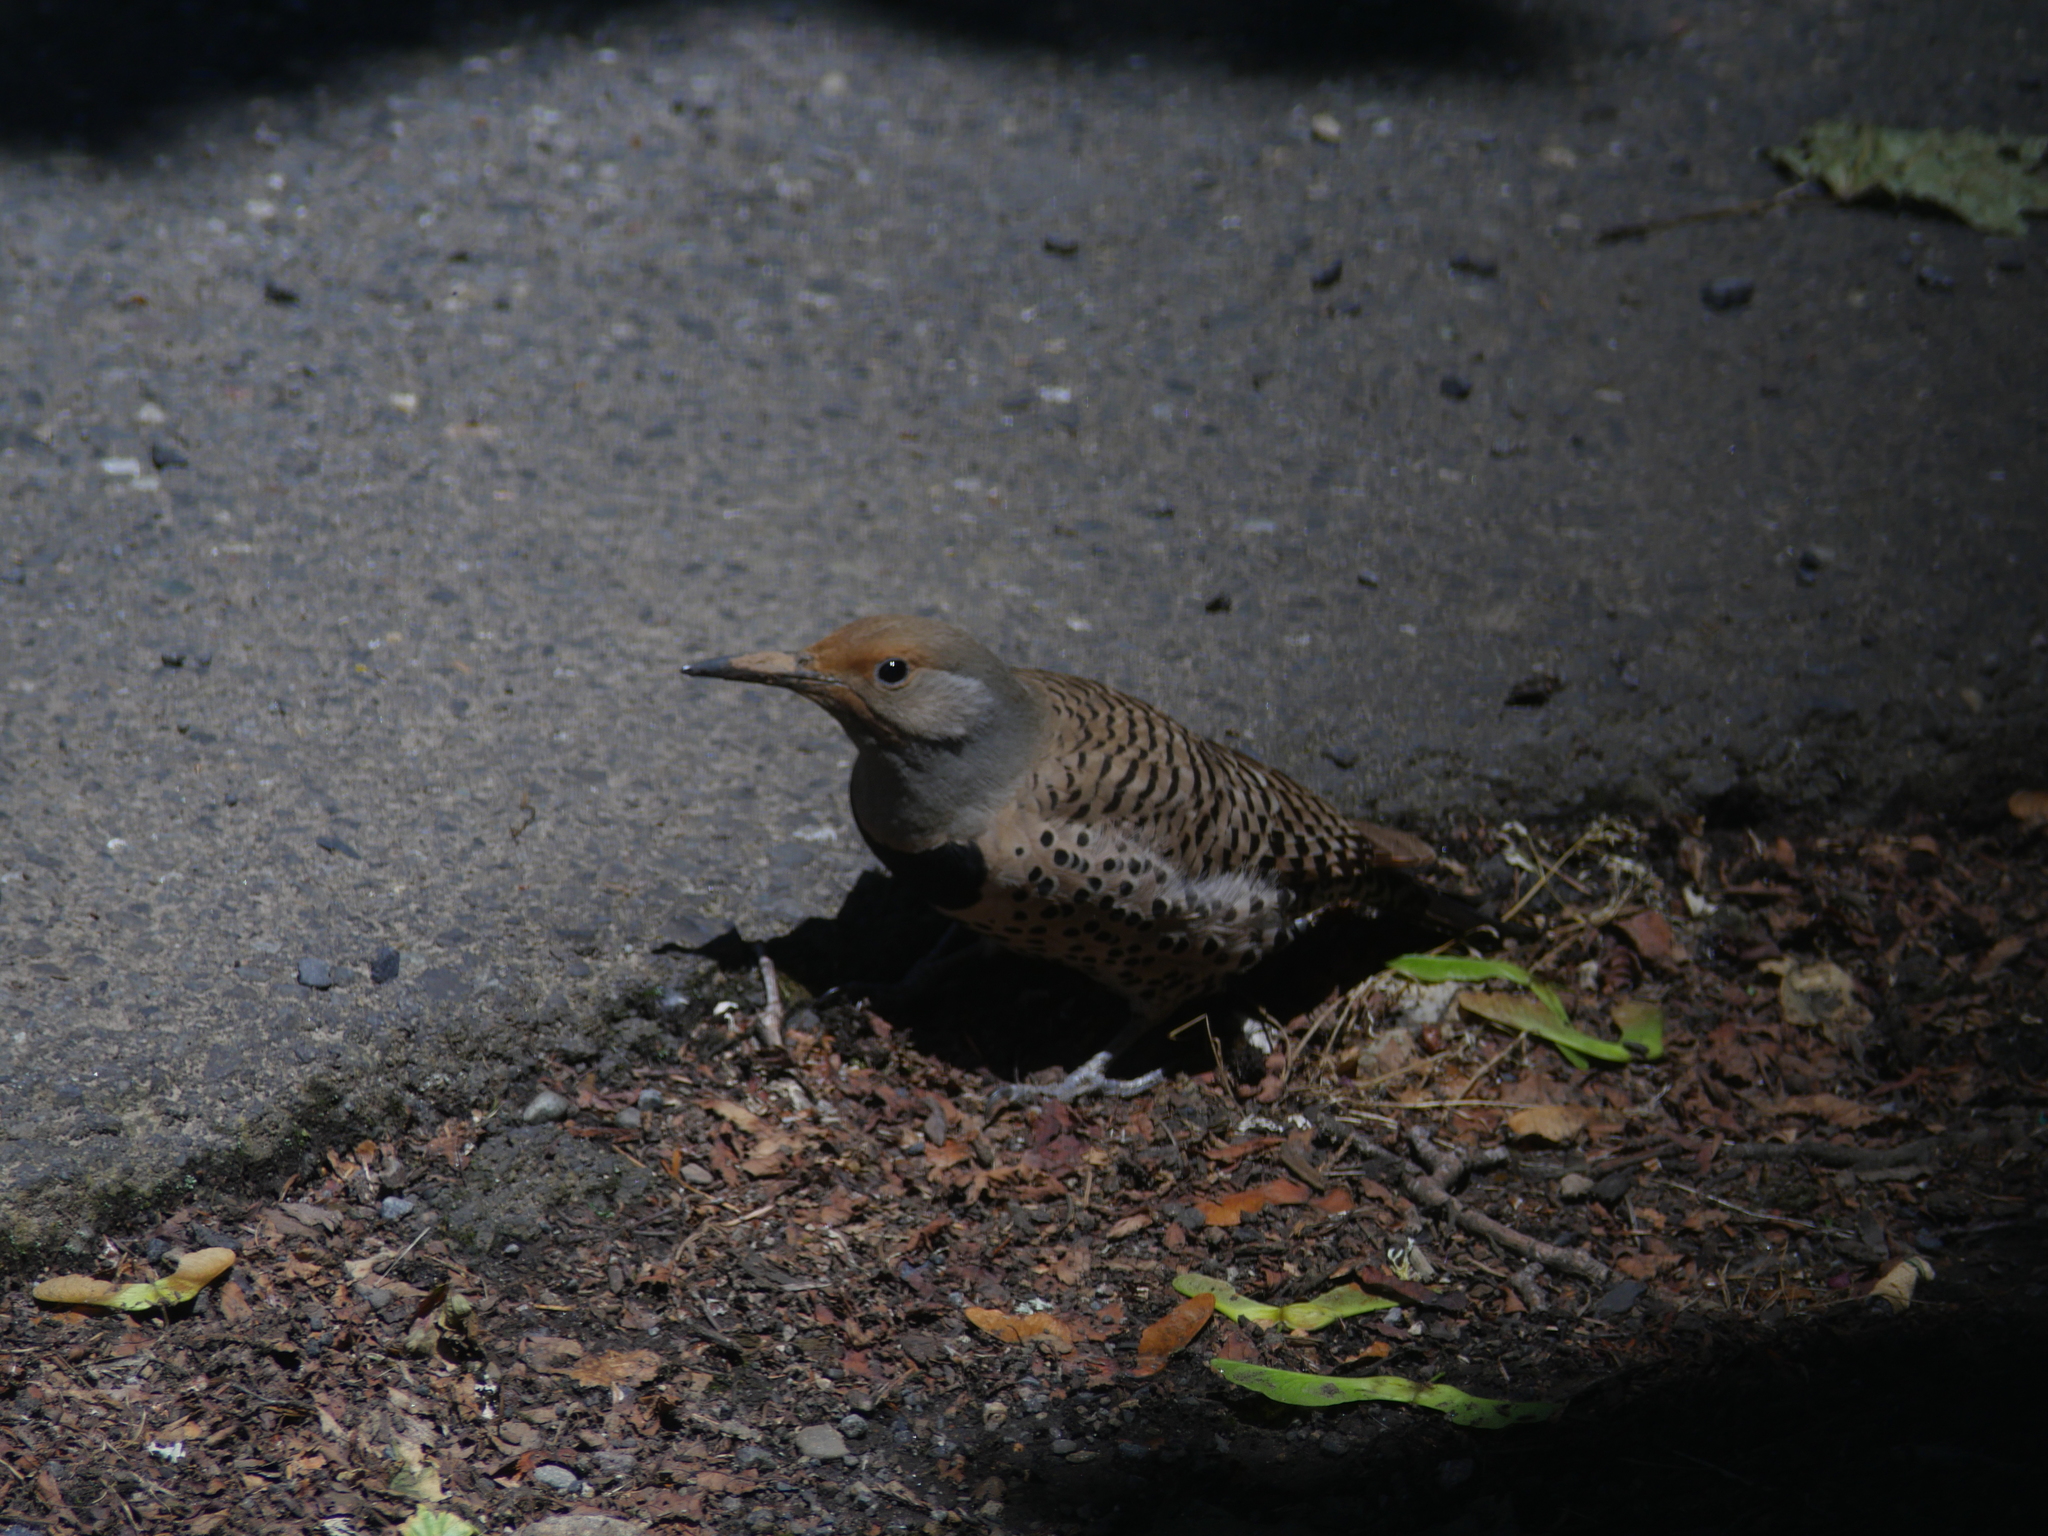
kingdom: Animalia
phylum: Chordata
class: Aves
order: Piciformes
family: Picidae
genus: Colaptes
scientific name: Colaptes auratus
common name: Northern flicker
